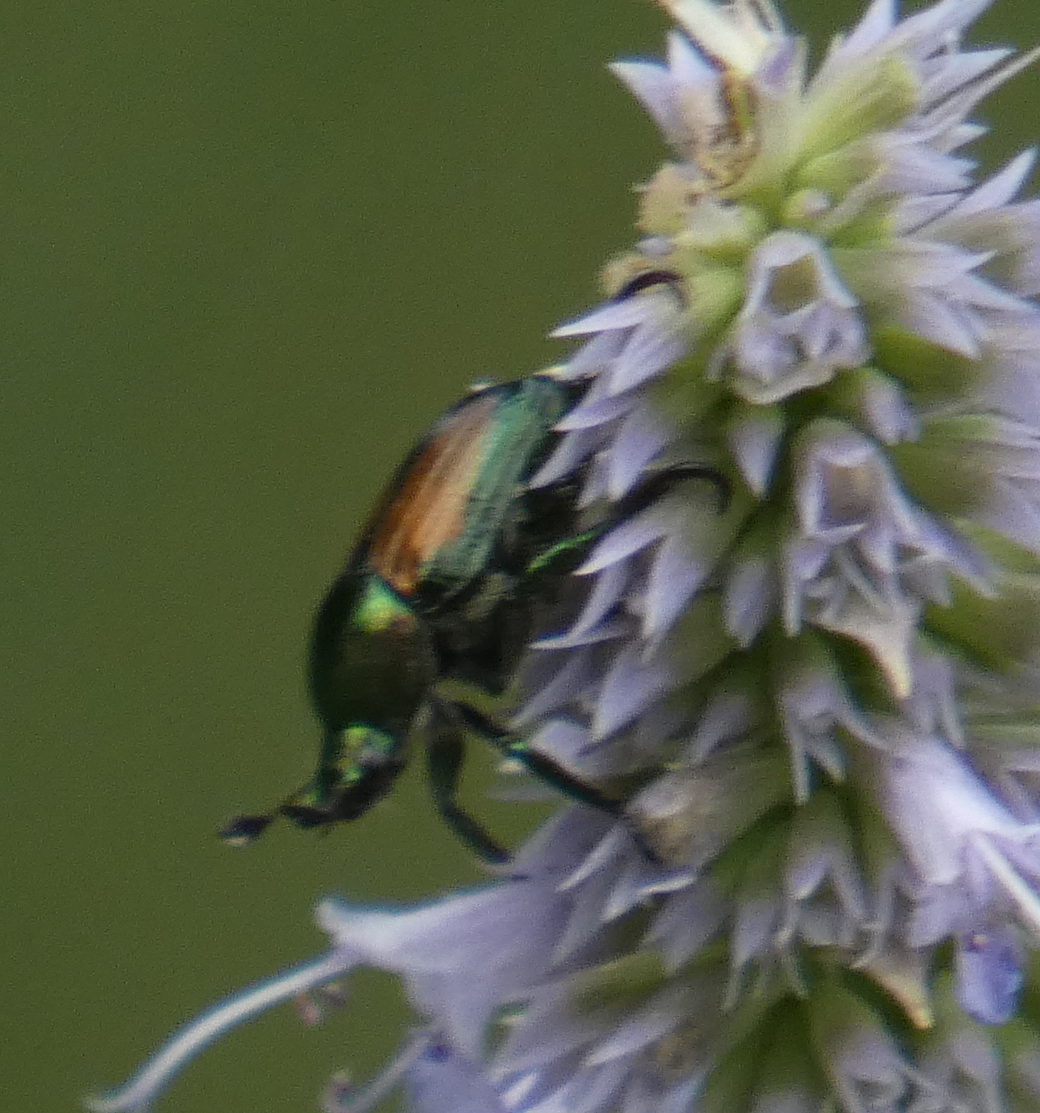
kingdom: Animalia
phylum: Arthropoda
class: Insecta
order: Coleoptera
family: Scarabaeidae
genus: Popillia
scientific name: Popillia japonica
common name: Japanese beetle
